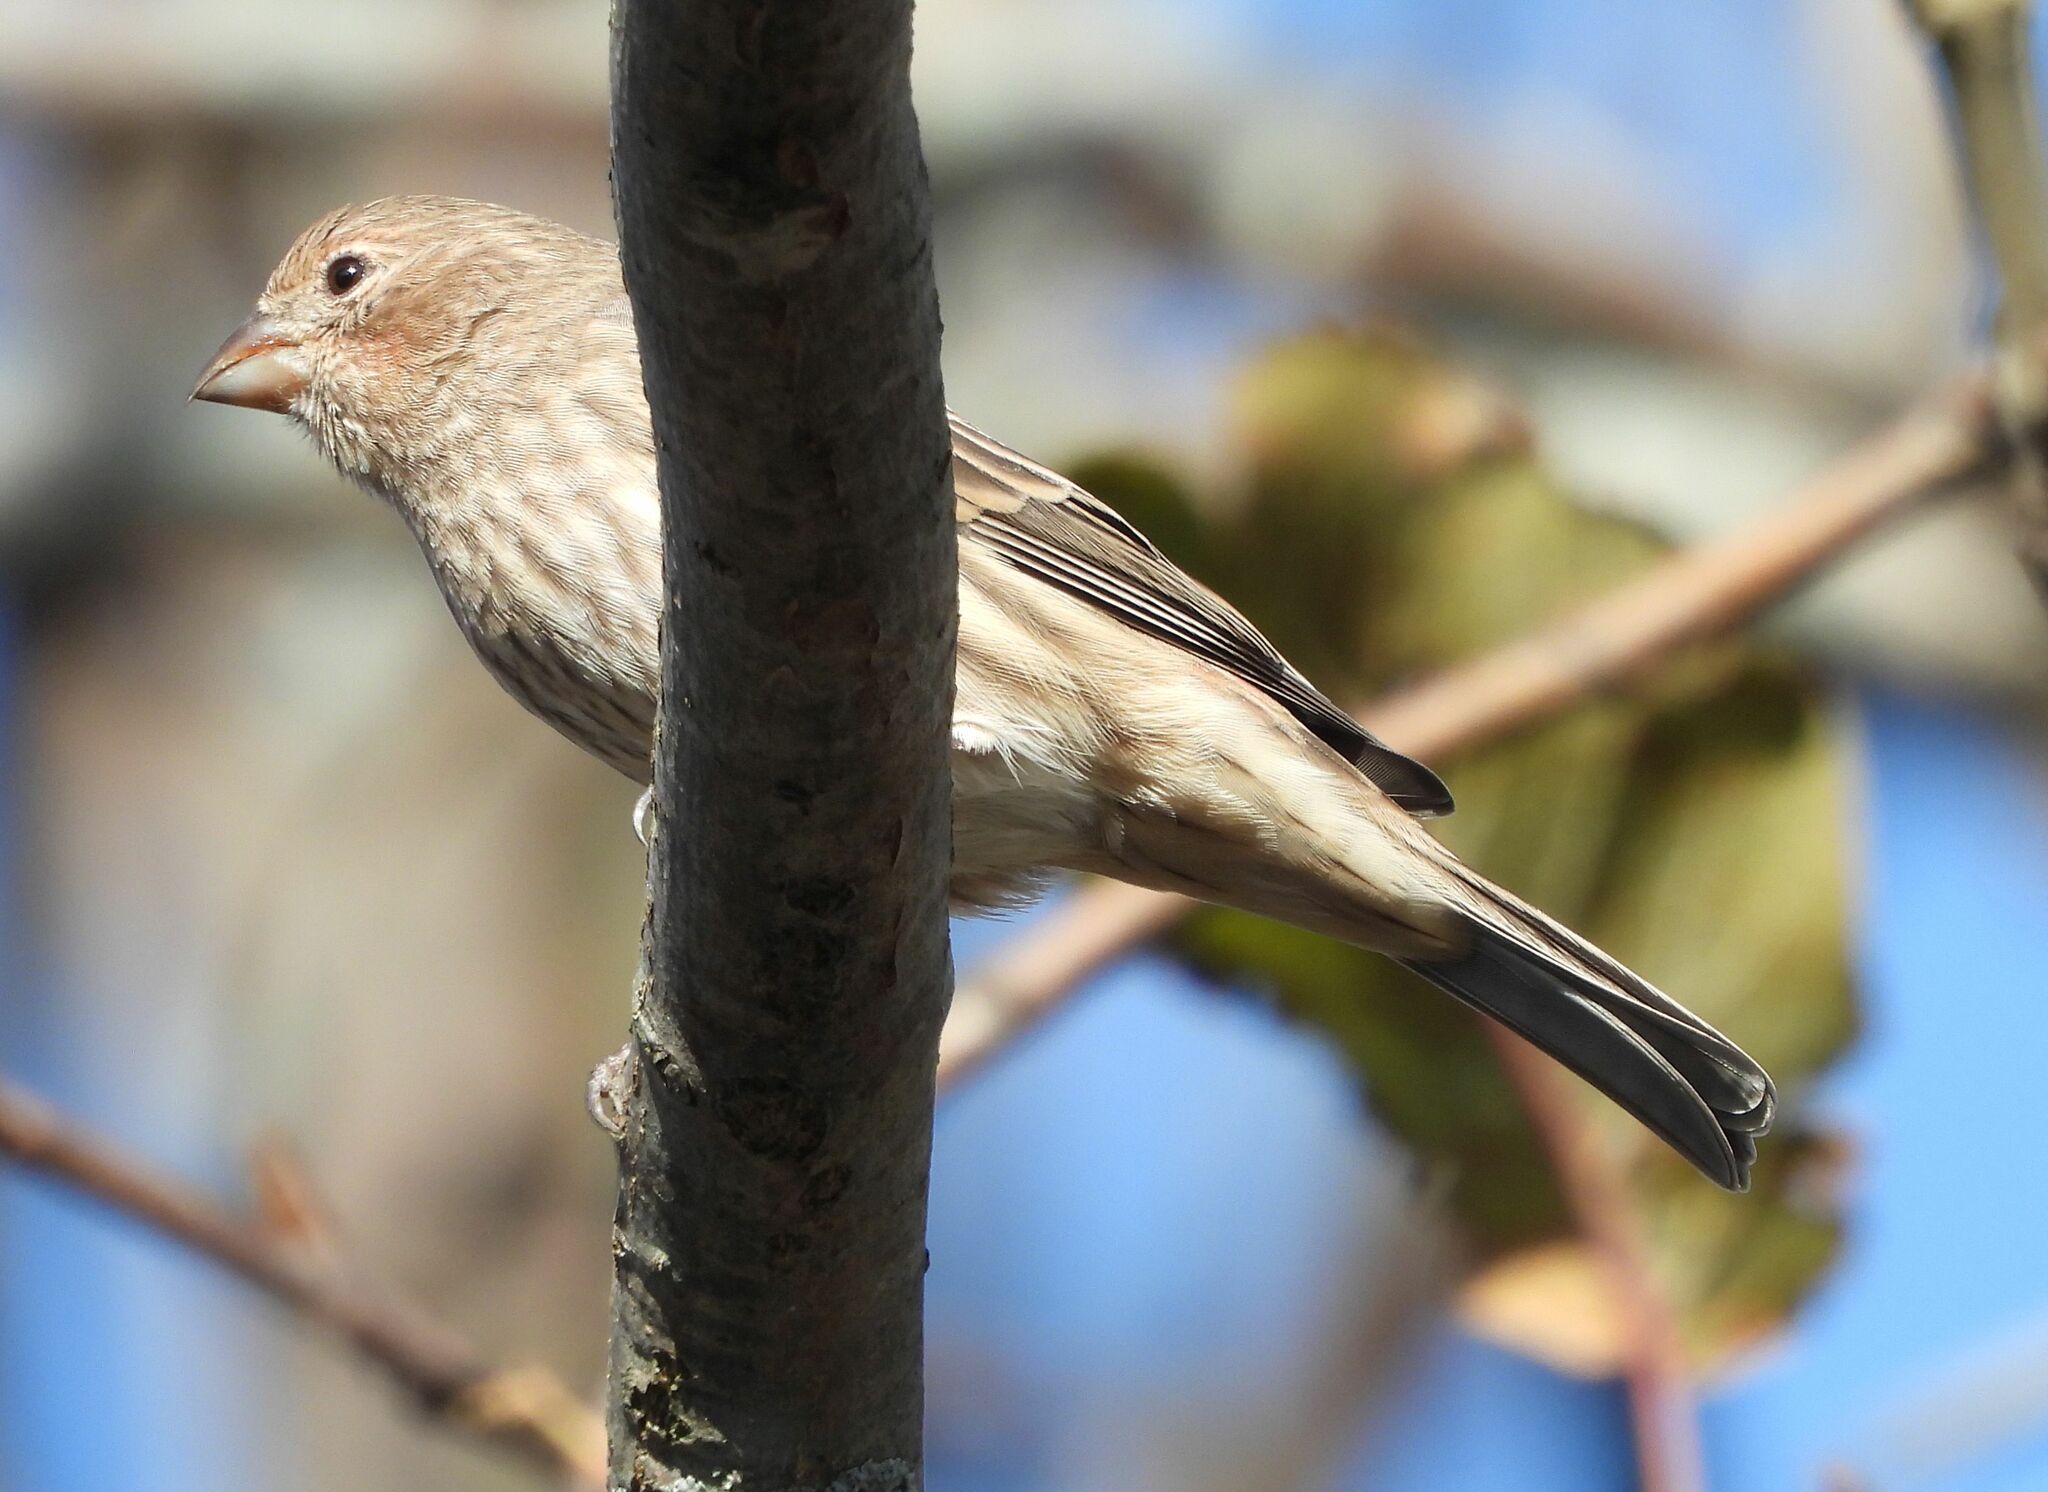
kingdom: Animalia
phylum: Chordata
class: Aves
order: Passeriformes
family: Fringillidae
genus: Haemorhous
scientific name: Haemorhous mexicanus
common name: House finch
